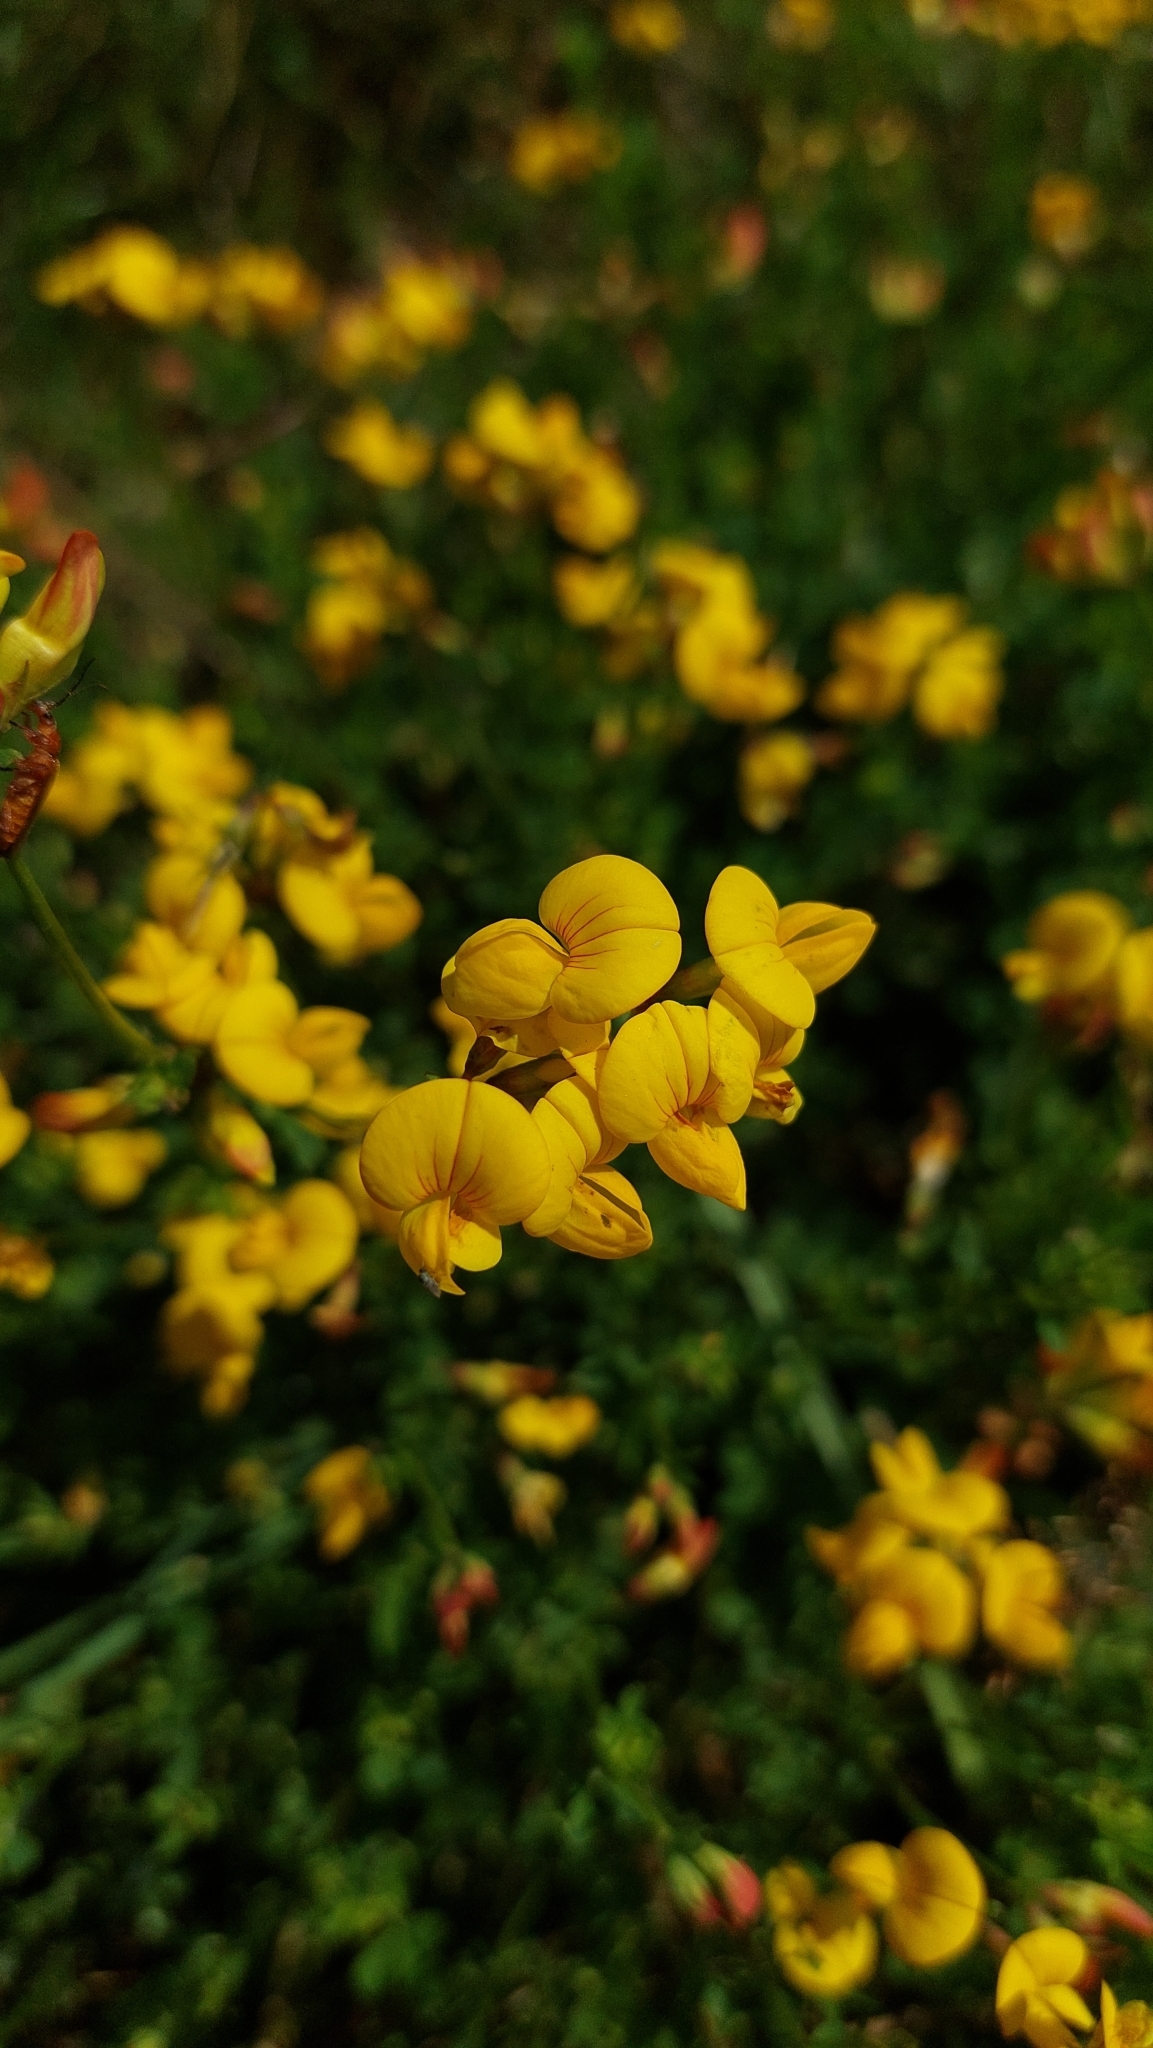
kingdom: Plantae
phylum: Tracheophyta
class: Magnoliopsida
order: Fabales
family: Fabaceae
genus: Lotus
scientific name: Lotus corniculatus
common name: Common bird's-foot-trefoil
